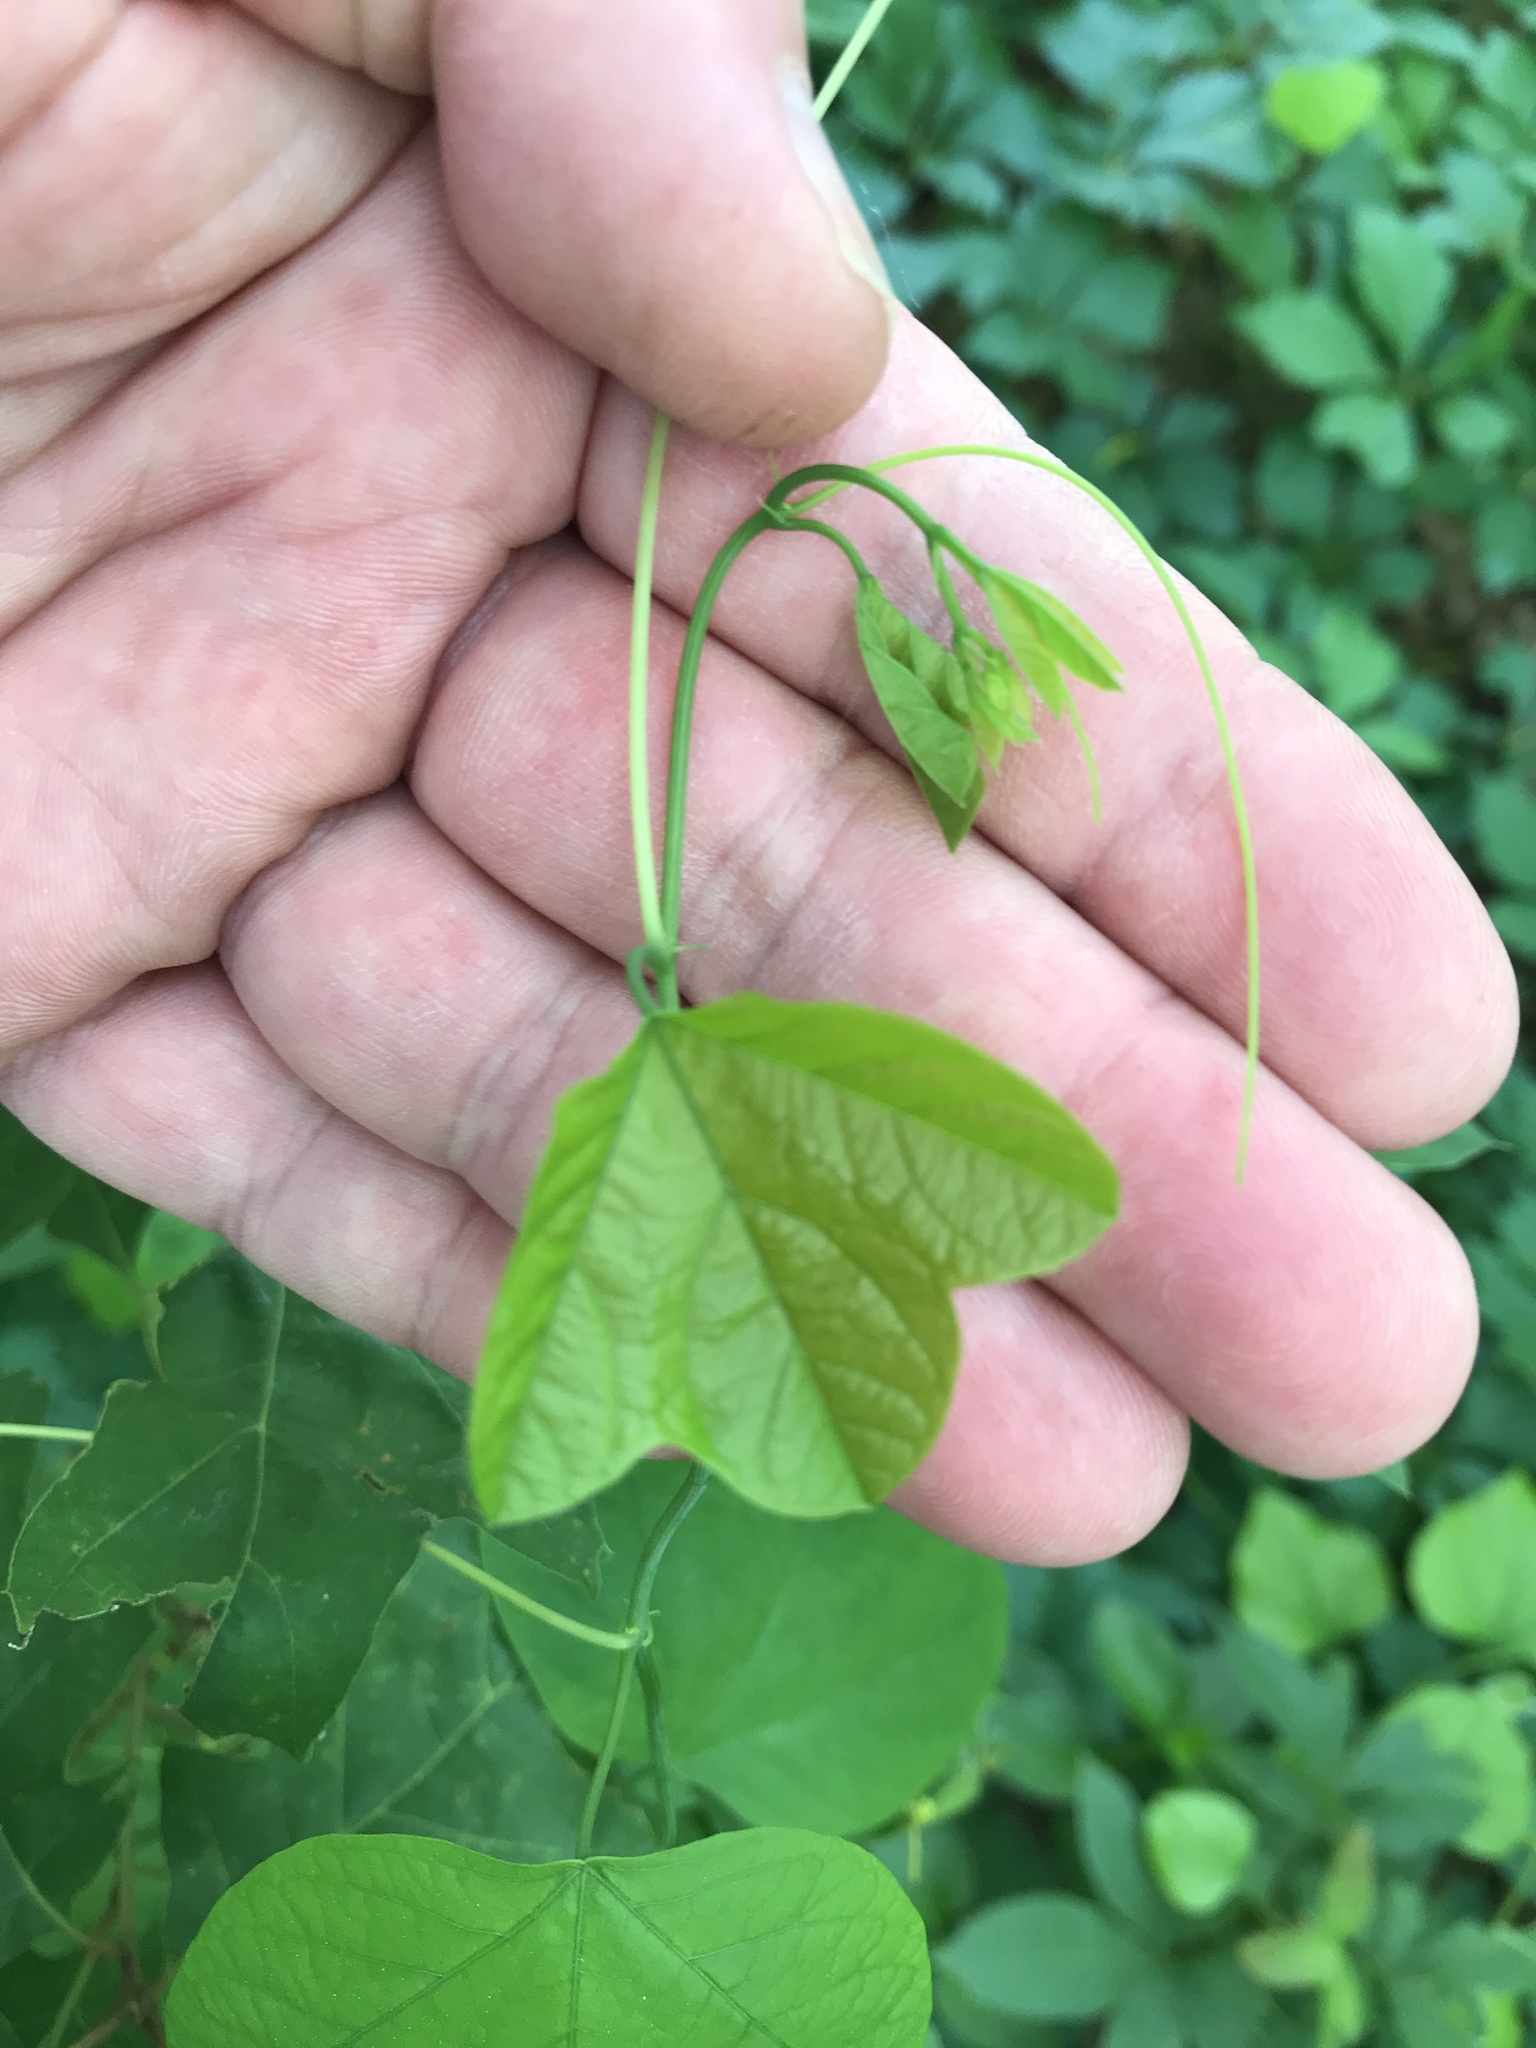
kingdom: Plantae
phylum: Tracheophyta
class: Magnoliopsida
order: Malpighiales
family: Passifloraceae
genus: Passiflora
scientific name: Passiflora lutea
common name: Yellow passionflower
